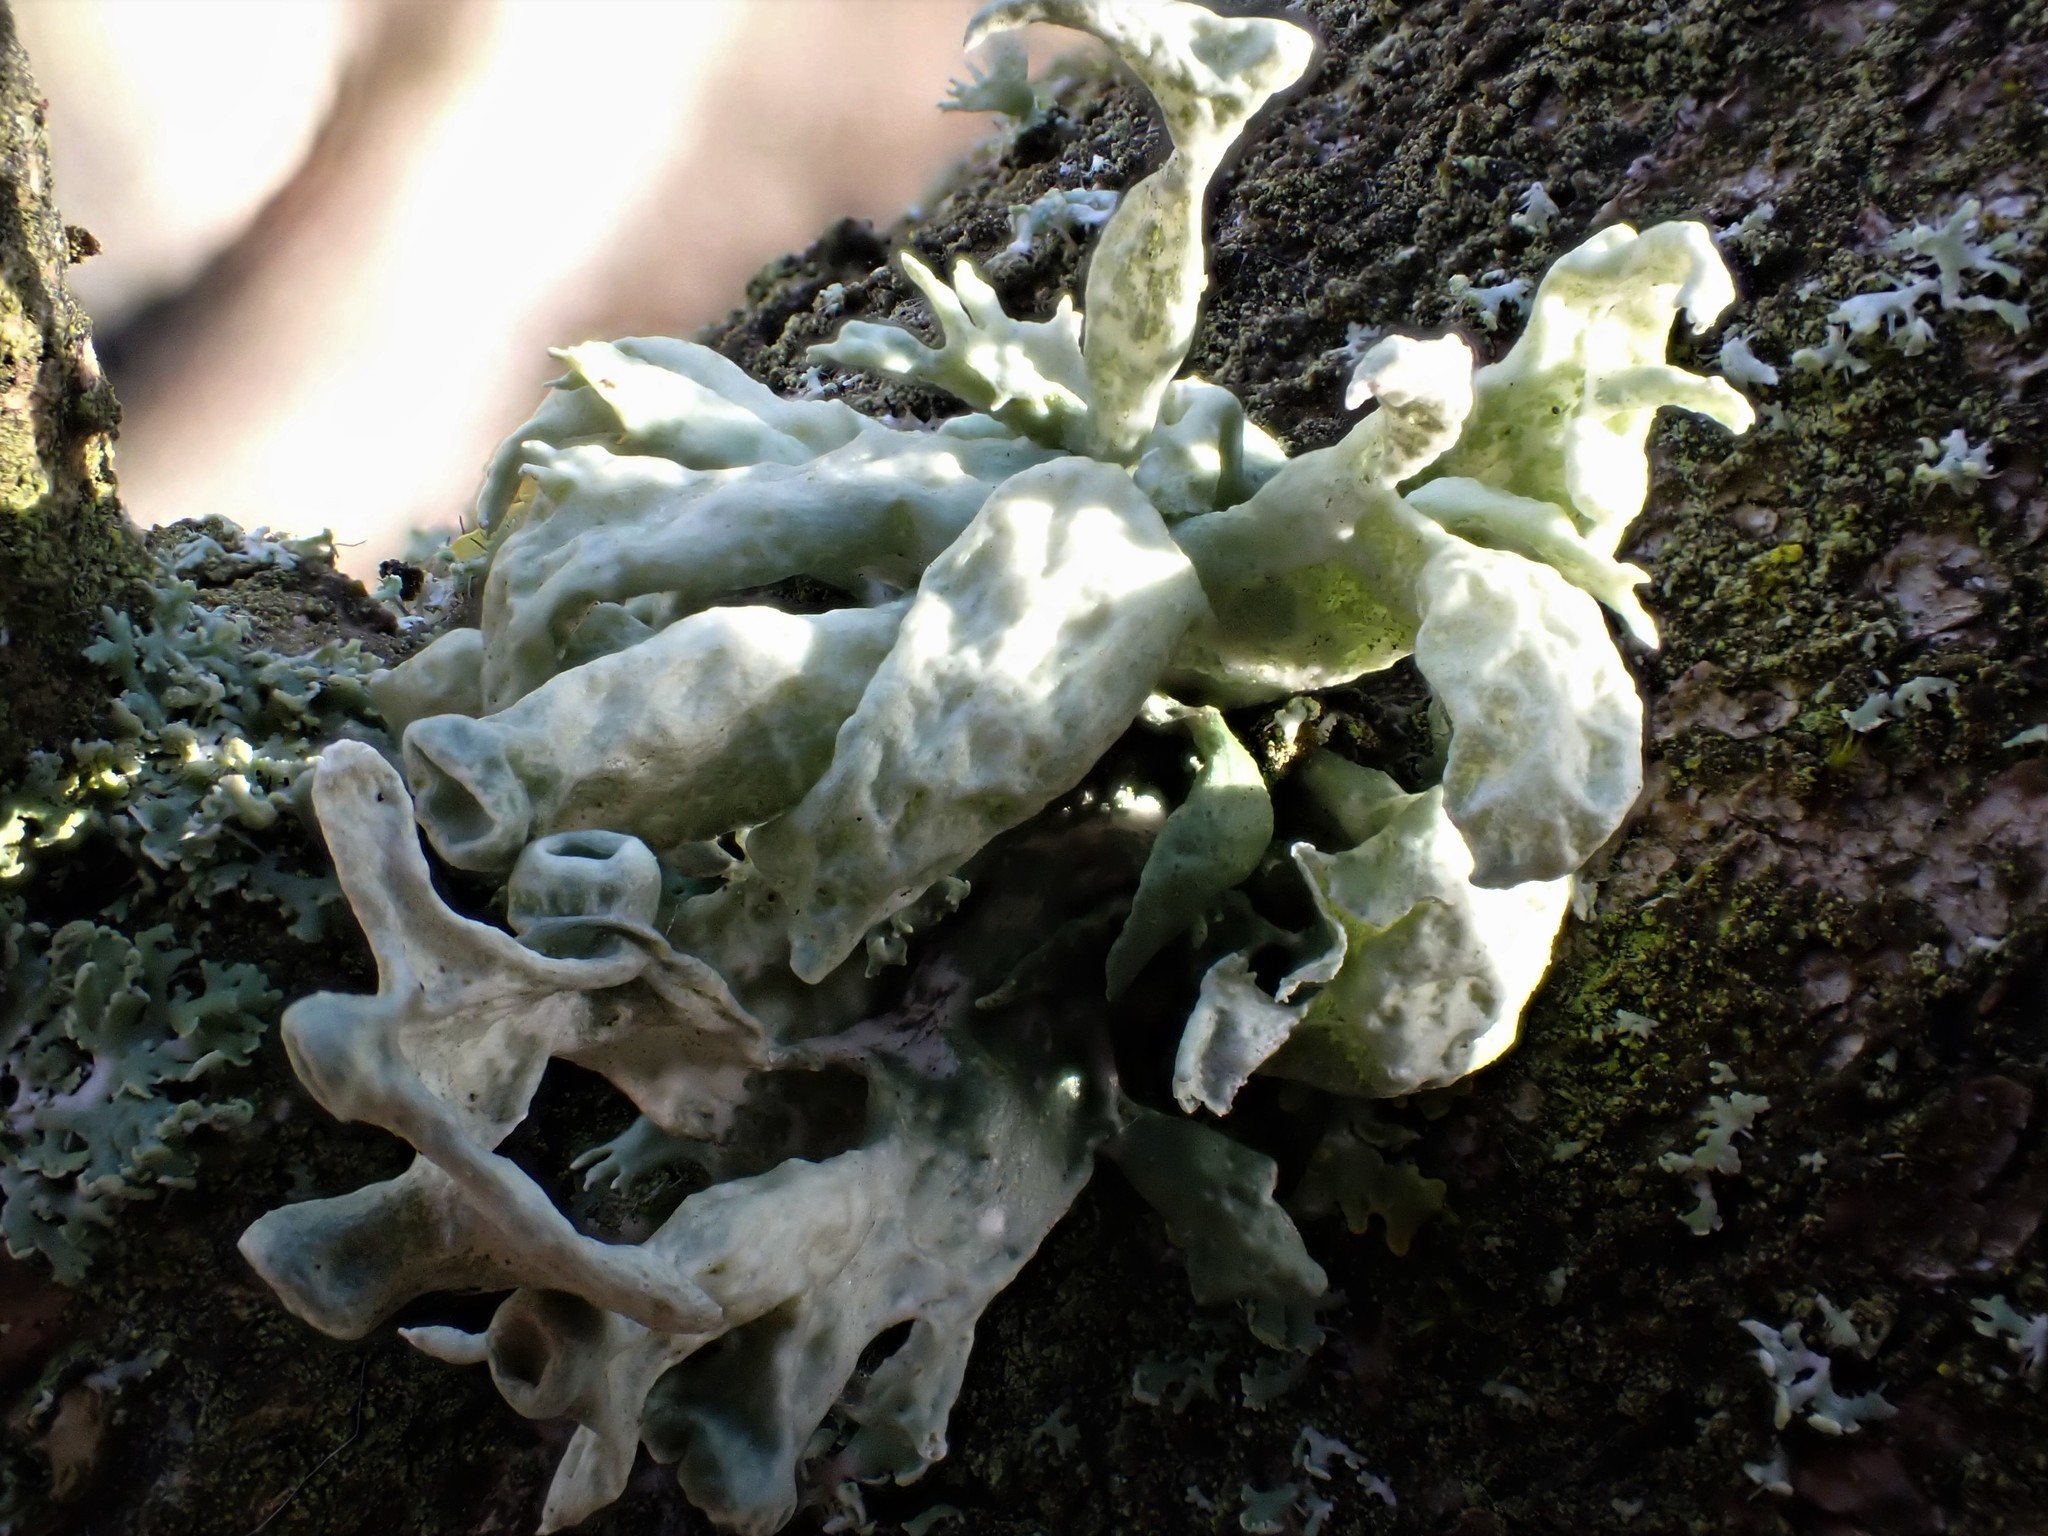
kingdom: Fungi
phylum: Ascomycota
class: Lecanoromycetes
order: Lecanorales
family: Ramalinaceae
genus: Ramalina
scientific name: Ramalina fastigiata
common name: Dotted ribbon lichen
